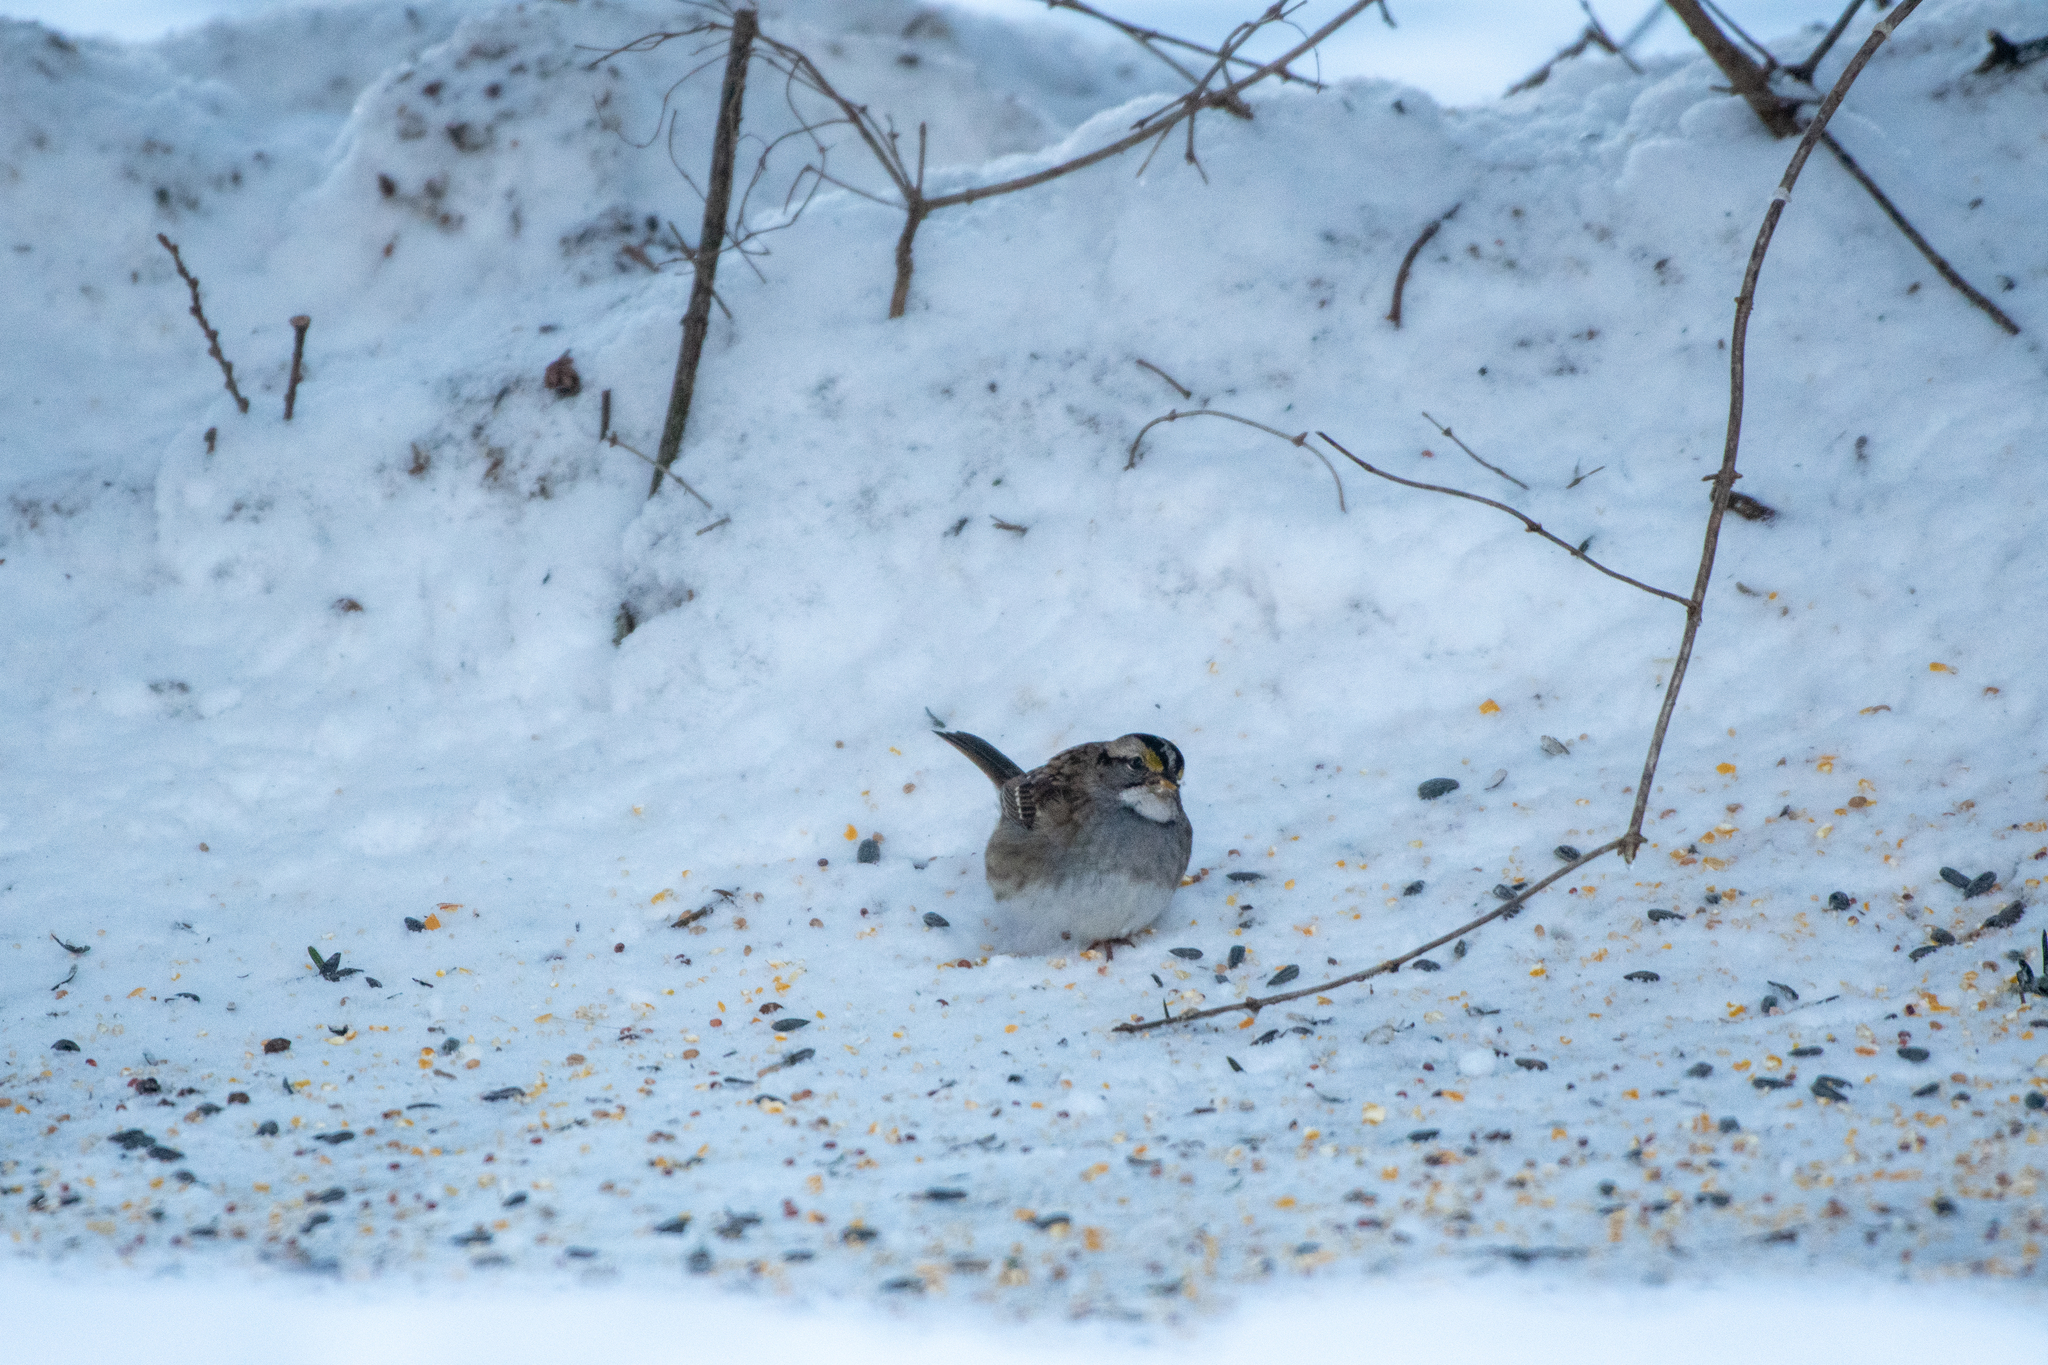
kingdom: Animalia
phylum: Chordata
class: Aves
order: Passeriformes
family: Passerellidae
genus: Zonotrichia
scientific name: Zonotrichia albicollis
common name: White-throated sparrow
